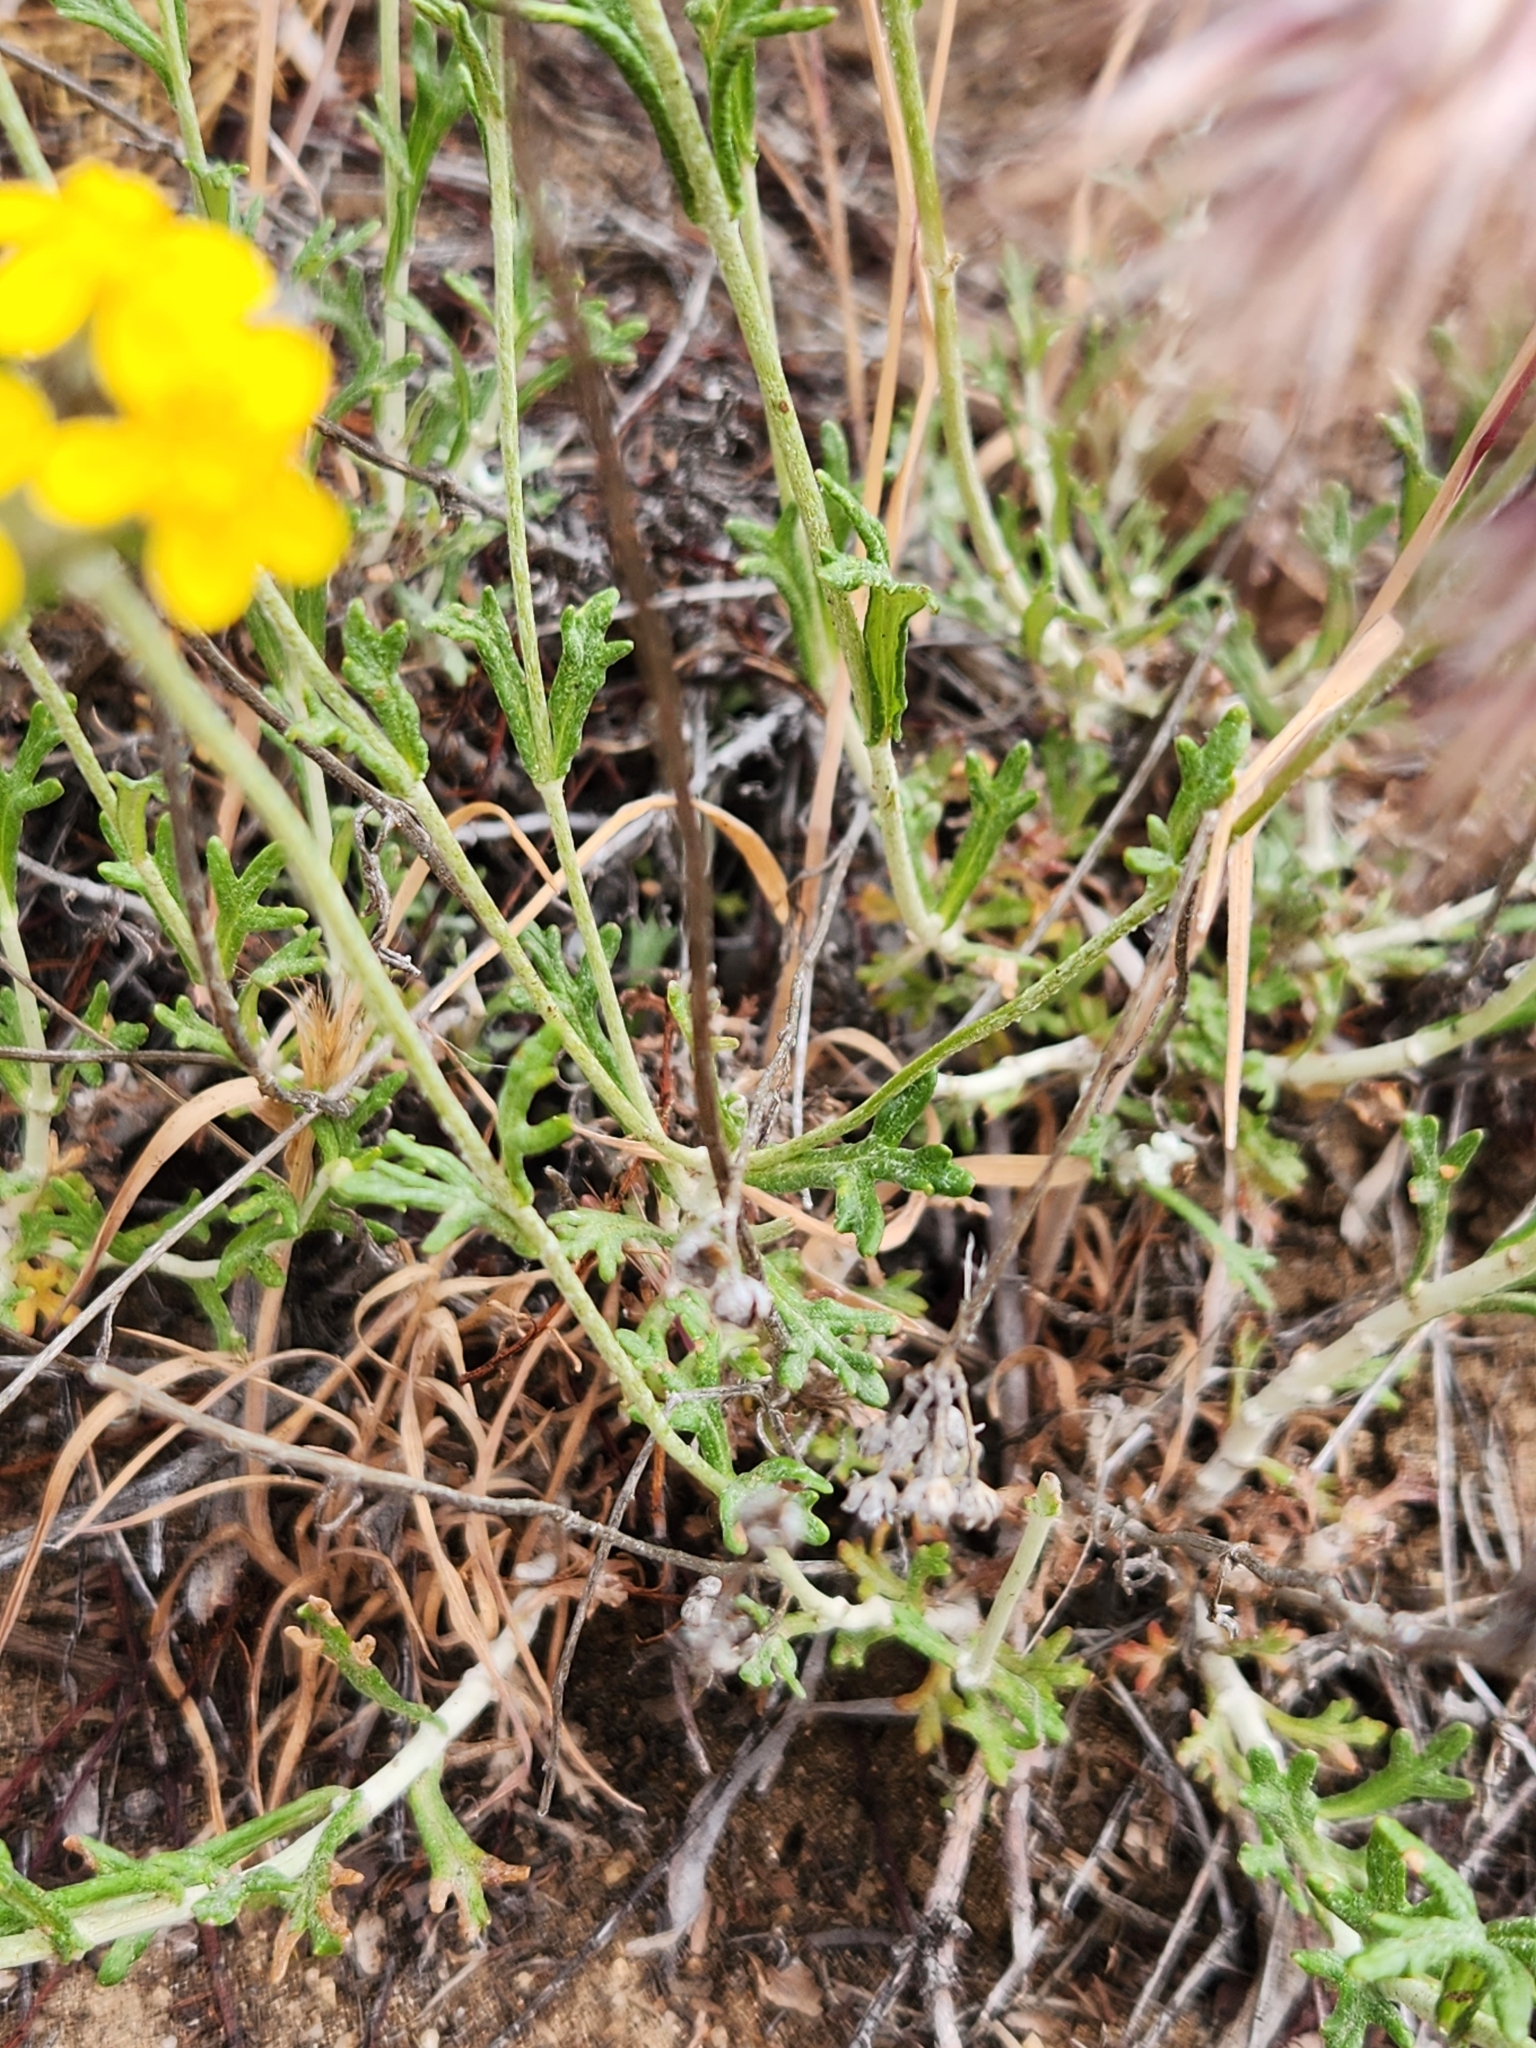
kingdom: Plantae
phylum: Tracheophyta
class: Magnoliopsida
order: Asterales
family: Asteraceae
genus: Eriophyllum
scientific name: Eriophyllum confertiflorum
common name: Golden-yarrow
